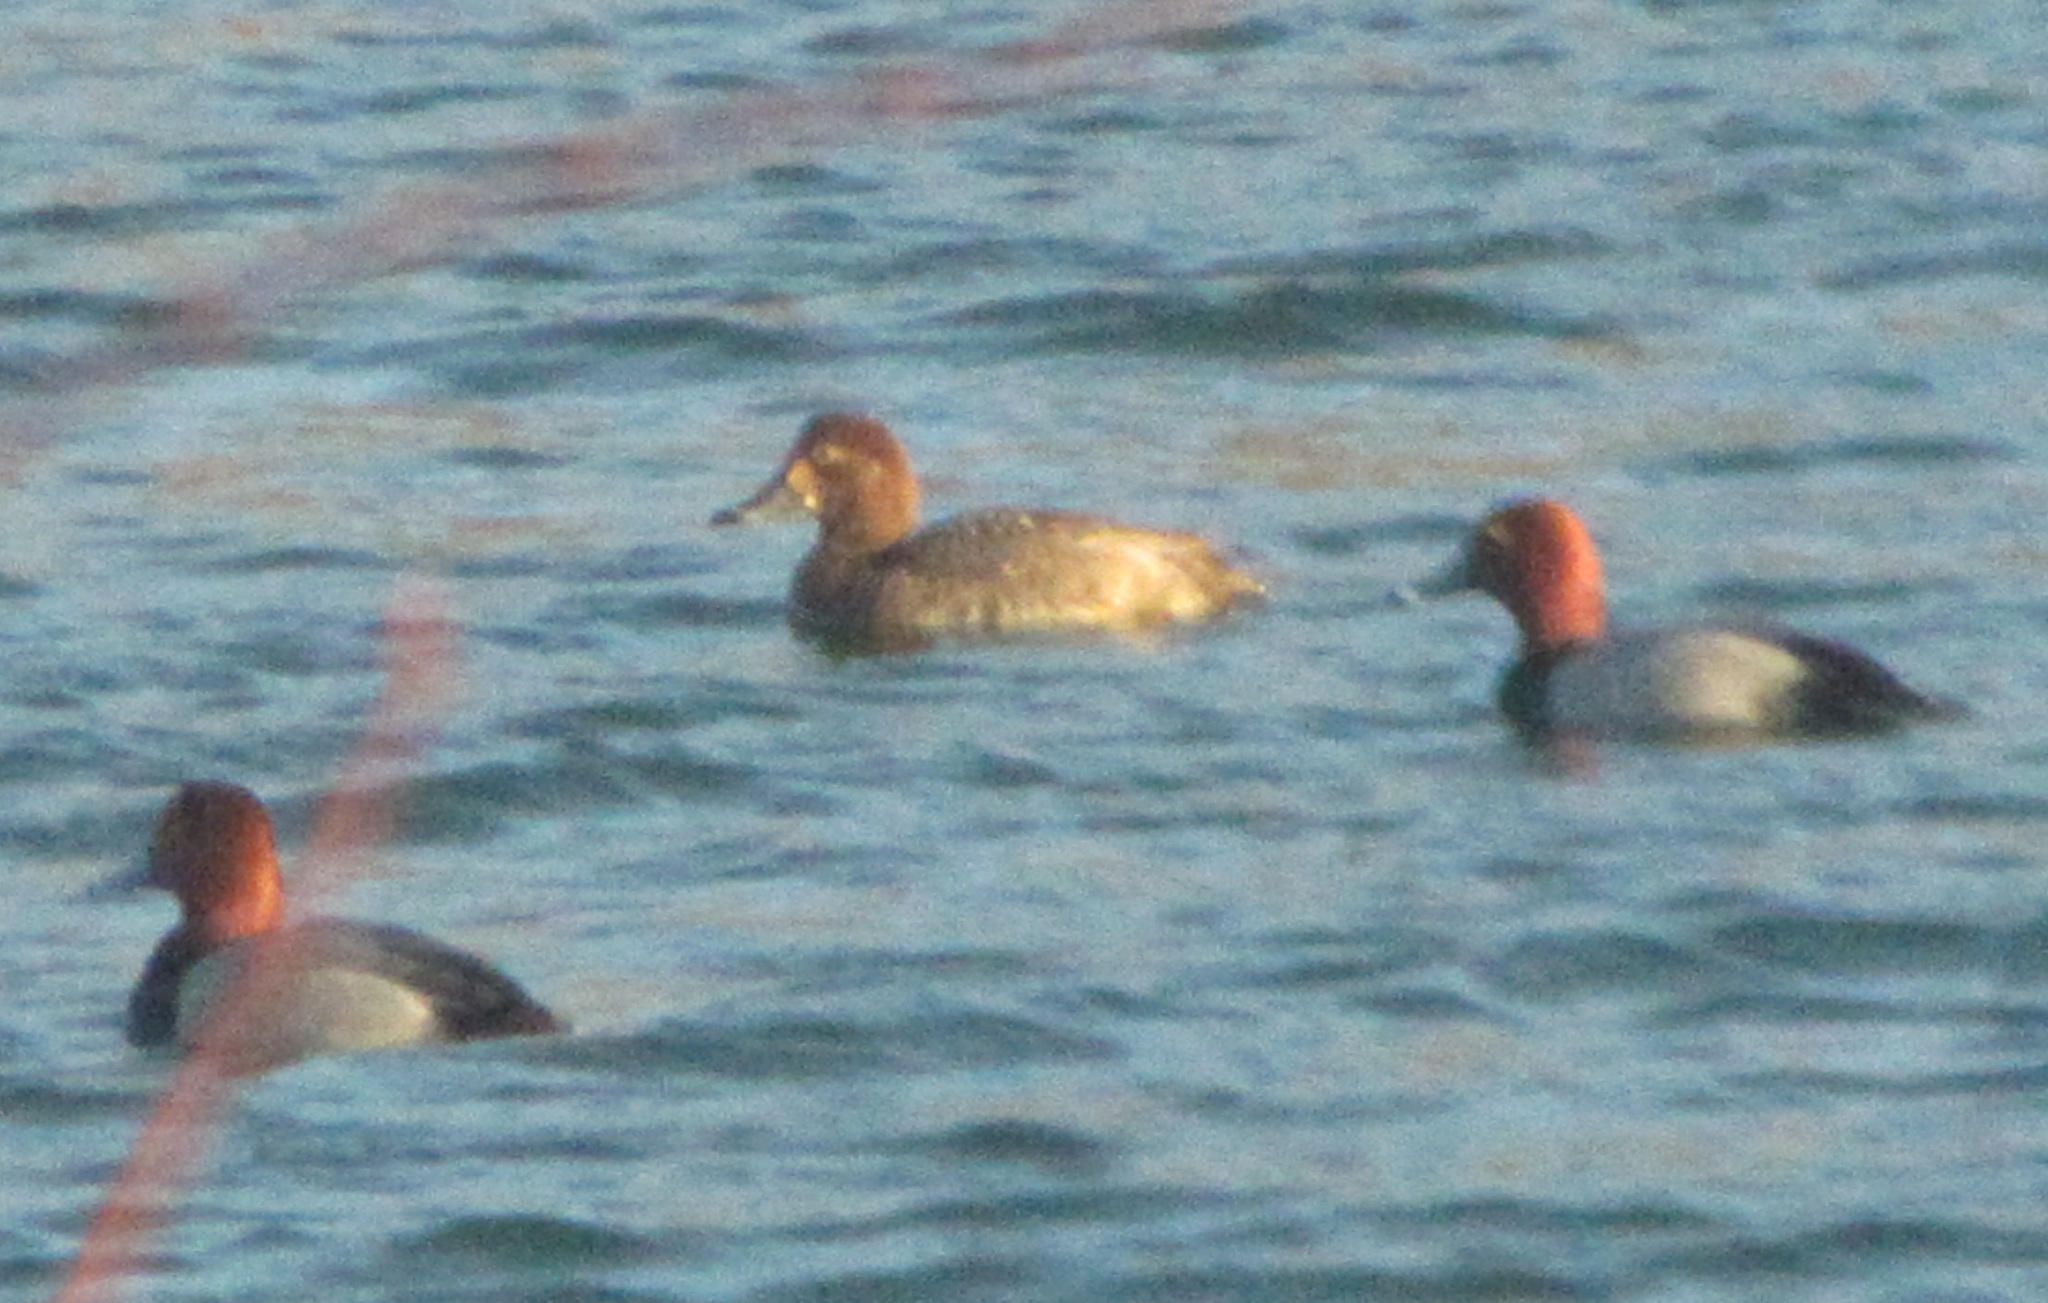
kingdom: Animalia
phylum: Chordata
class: Aves
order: Anseriformes
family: Anatidae
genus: Aythya
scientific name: Aythya americana
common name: Redhead
